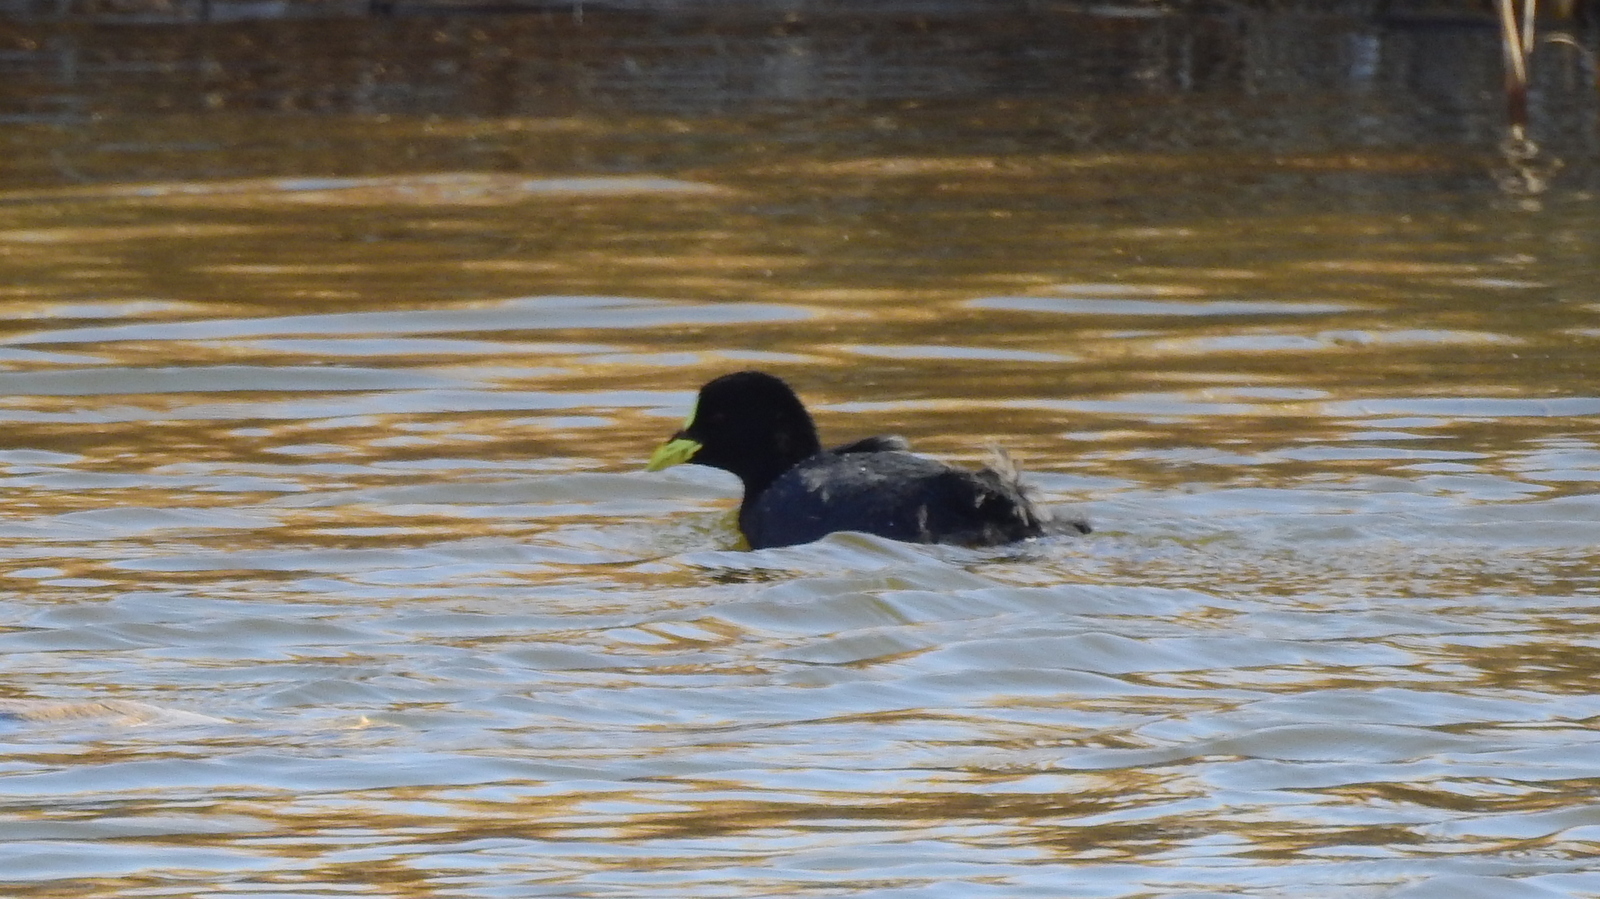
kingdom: Animalia
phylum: Chordata
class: Aves
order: Gruiformes
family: Rallidae
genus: Fulica
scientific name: Fulica armillata
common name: Red-gartered coot
